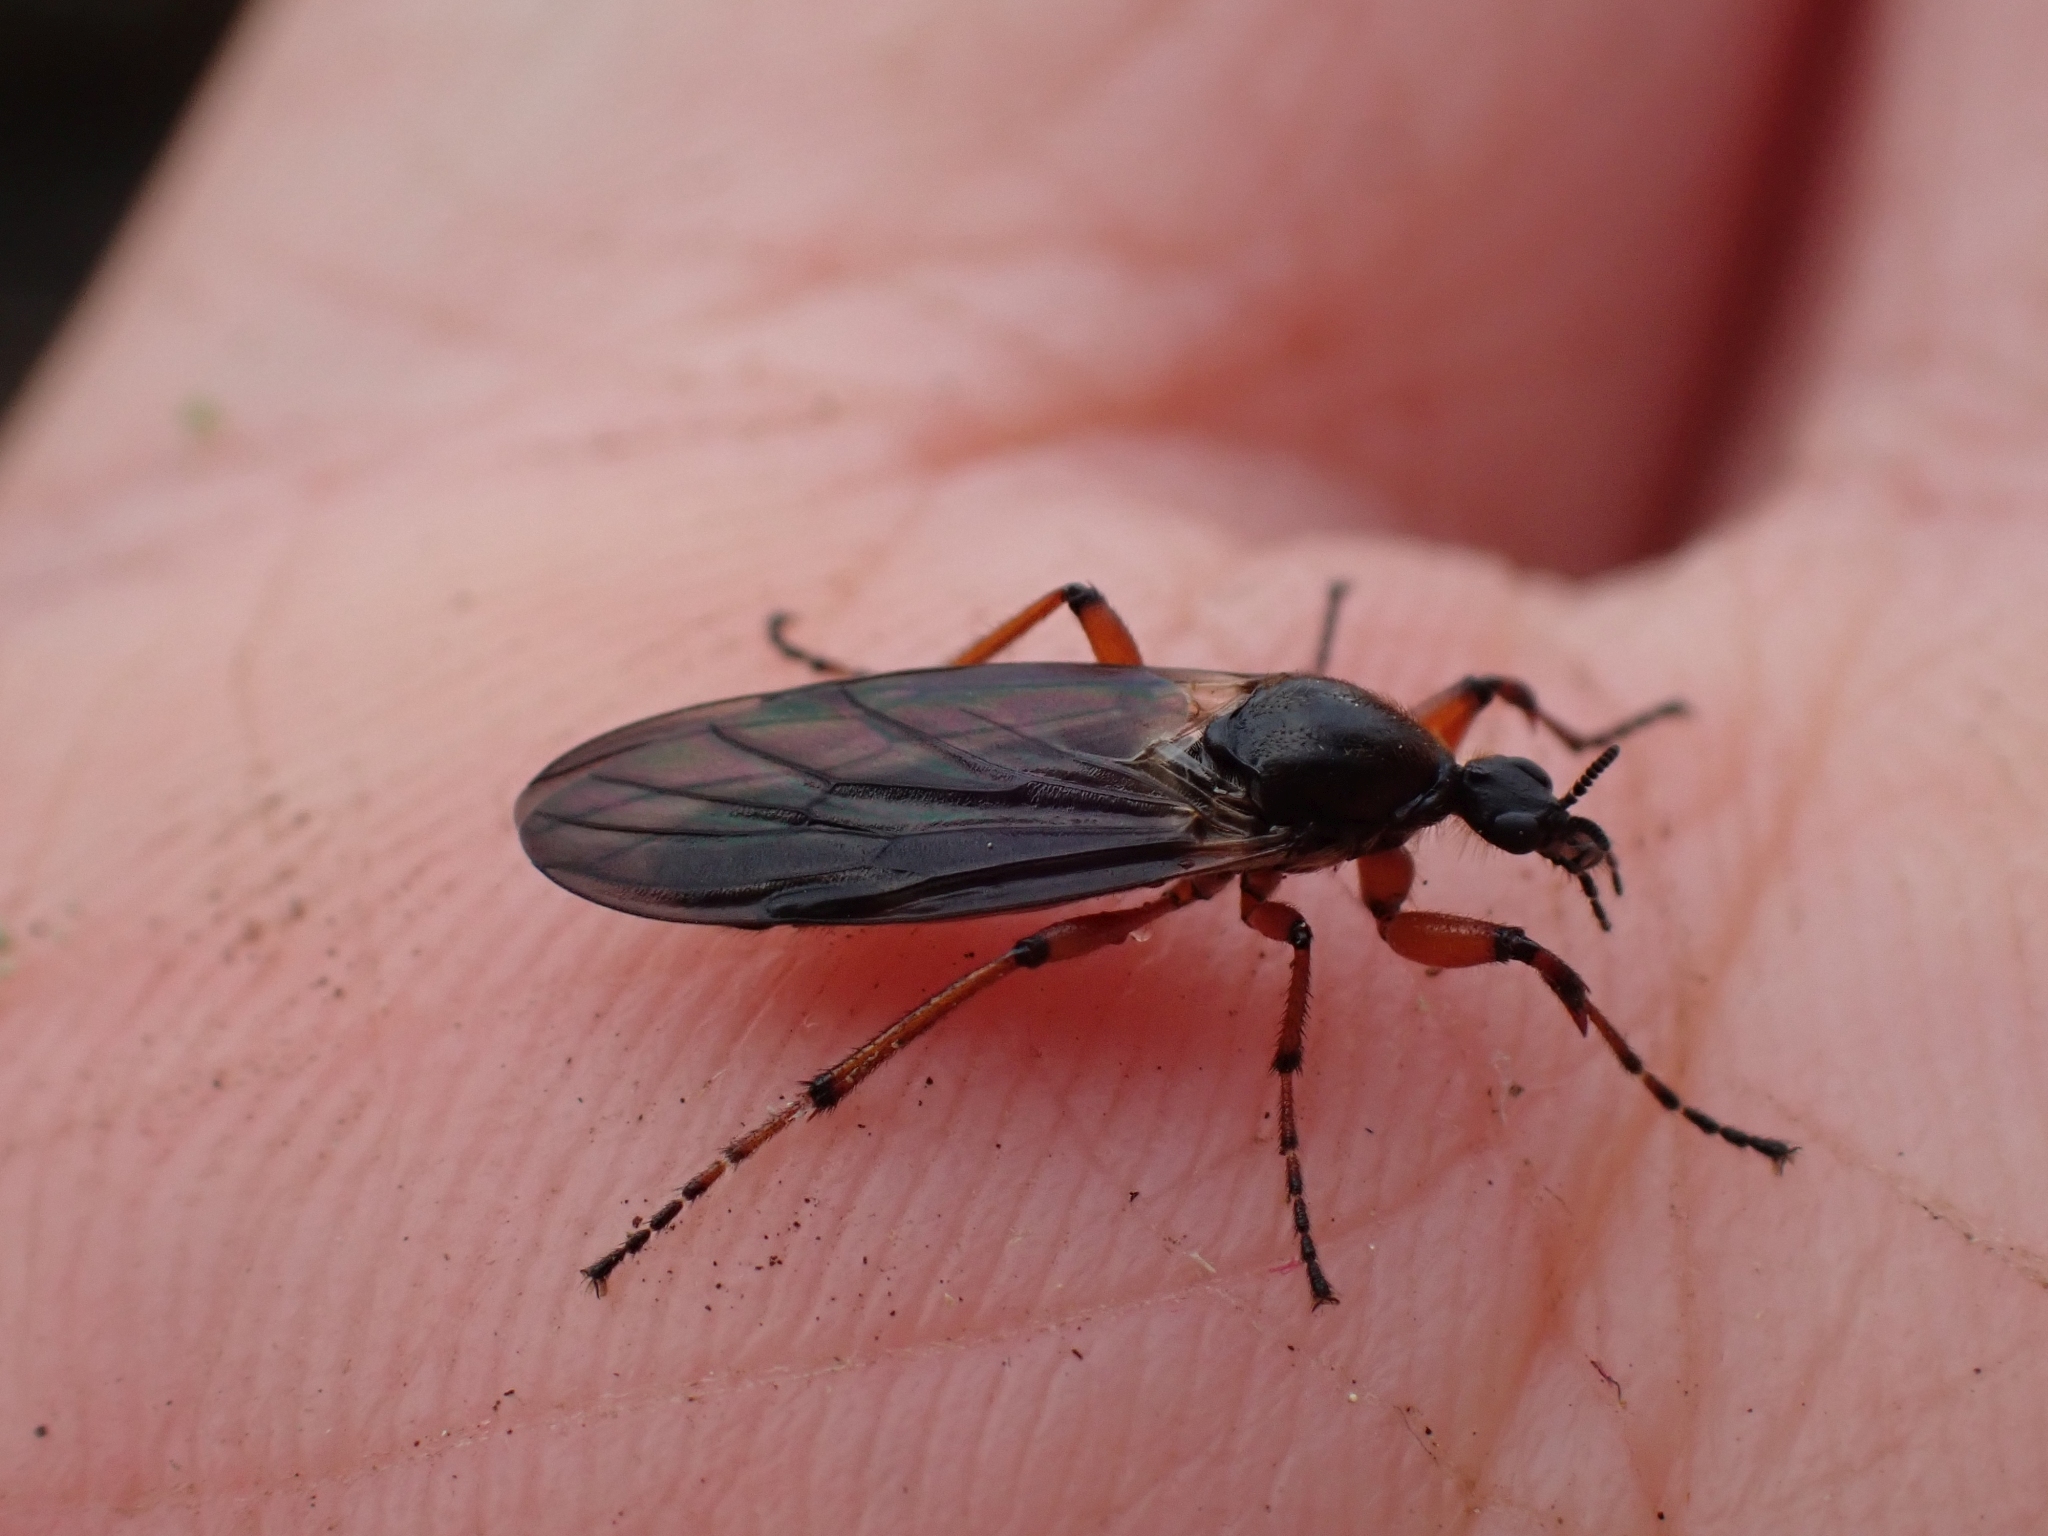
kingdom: Animalia
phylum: Arthropoda
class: Insecta
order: Diptera
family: Bibionidae
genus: Bibio
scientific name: Bibio xanthopus
